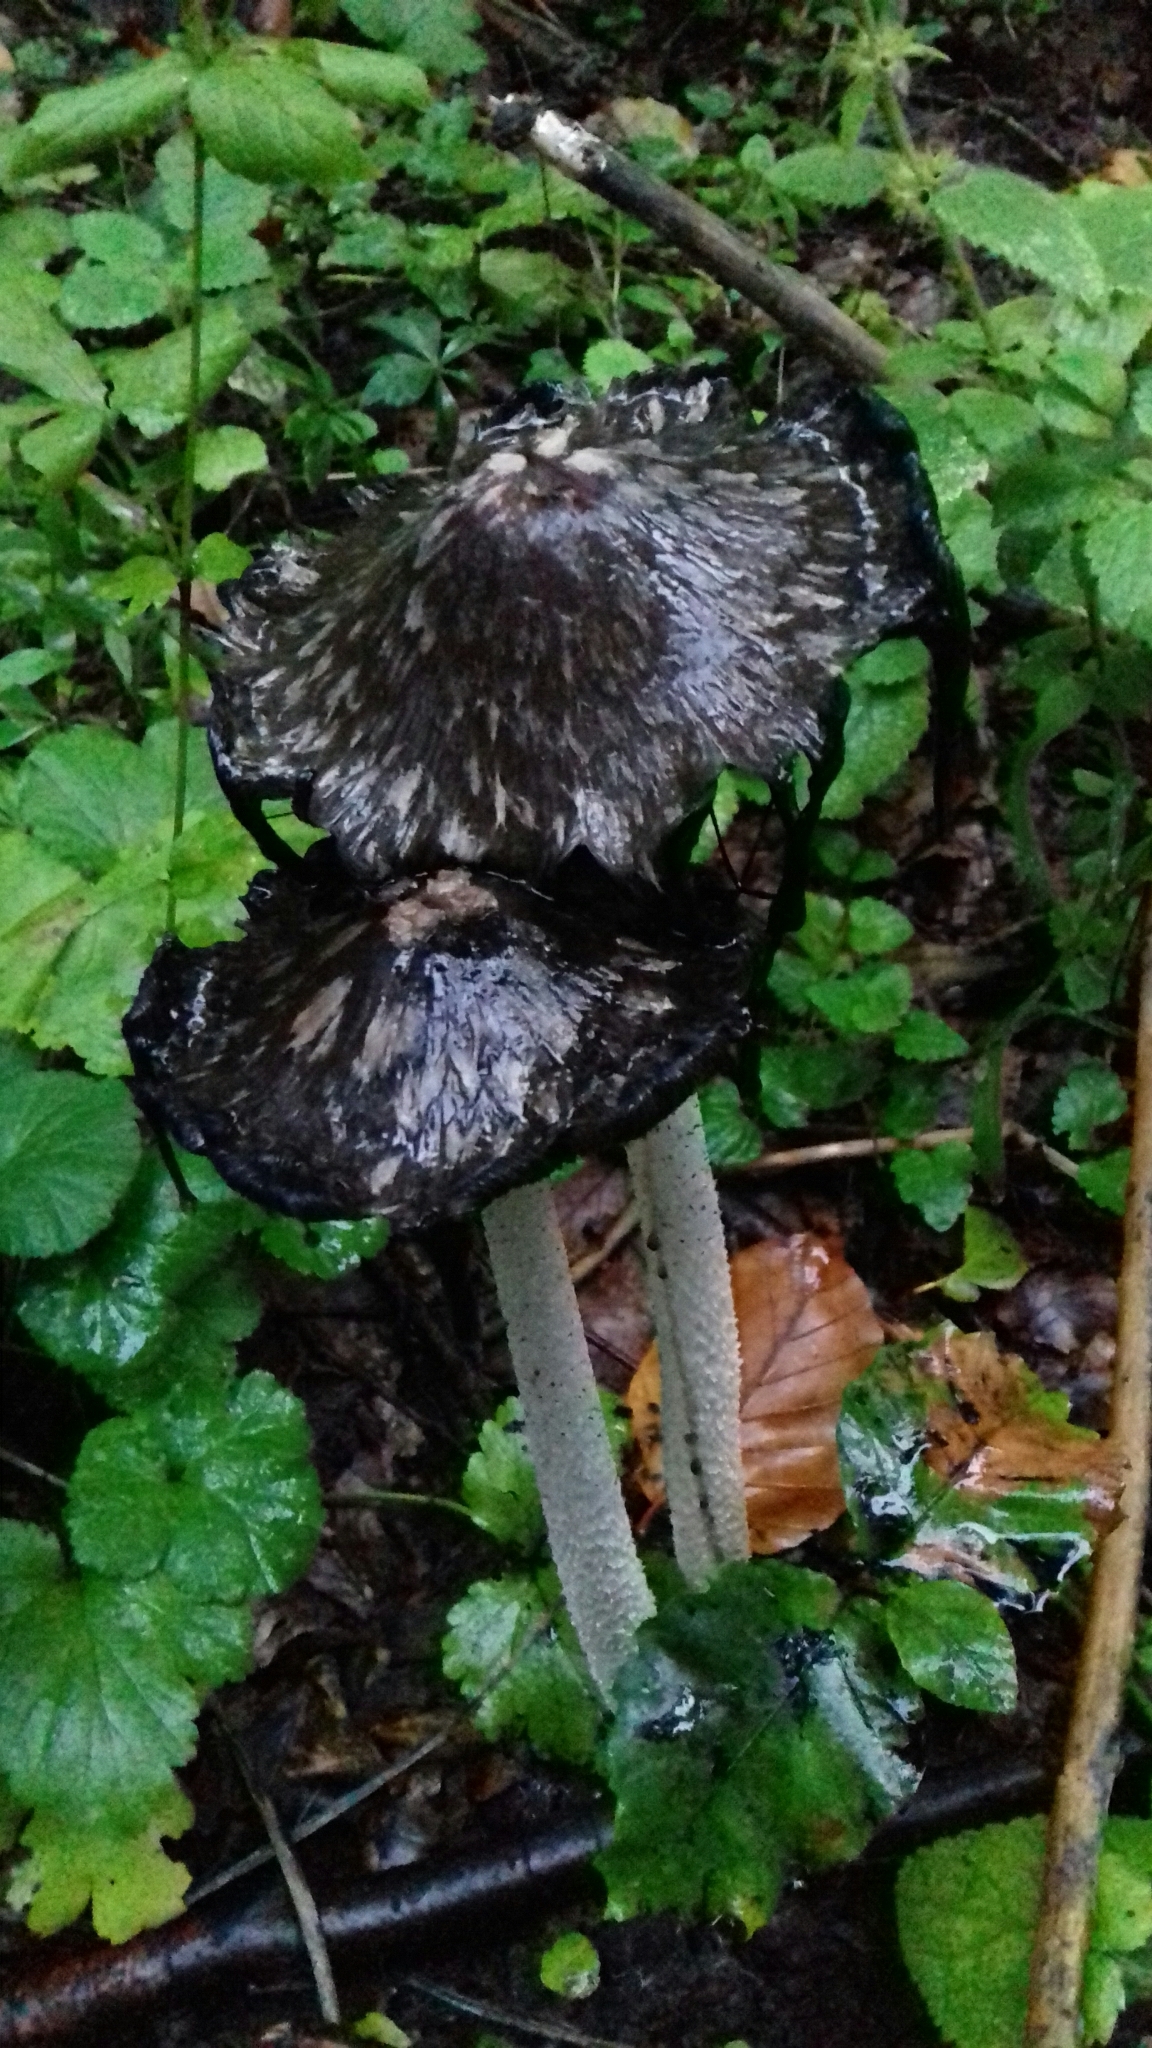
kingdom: Fungi
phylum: Basidiomycota
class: Agaricomycetes
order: Agaricales
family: Psathyrellaceae
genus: Coprinopsis
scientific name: Coprinopsis picacea
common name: Magpie inkcap
